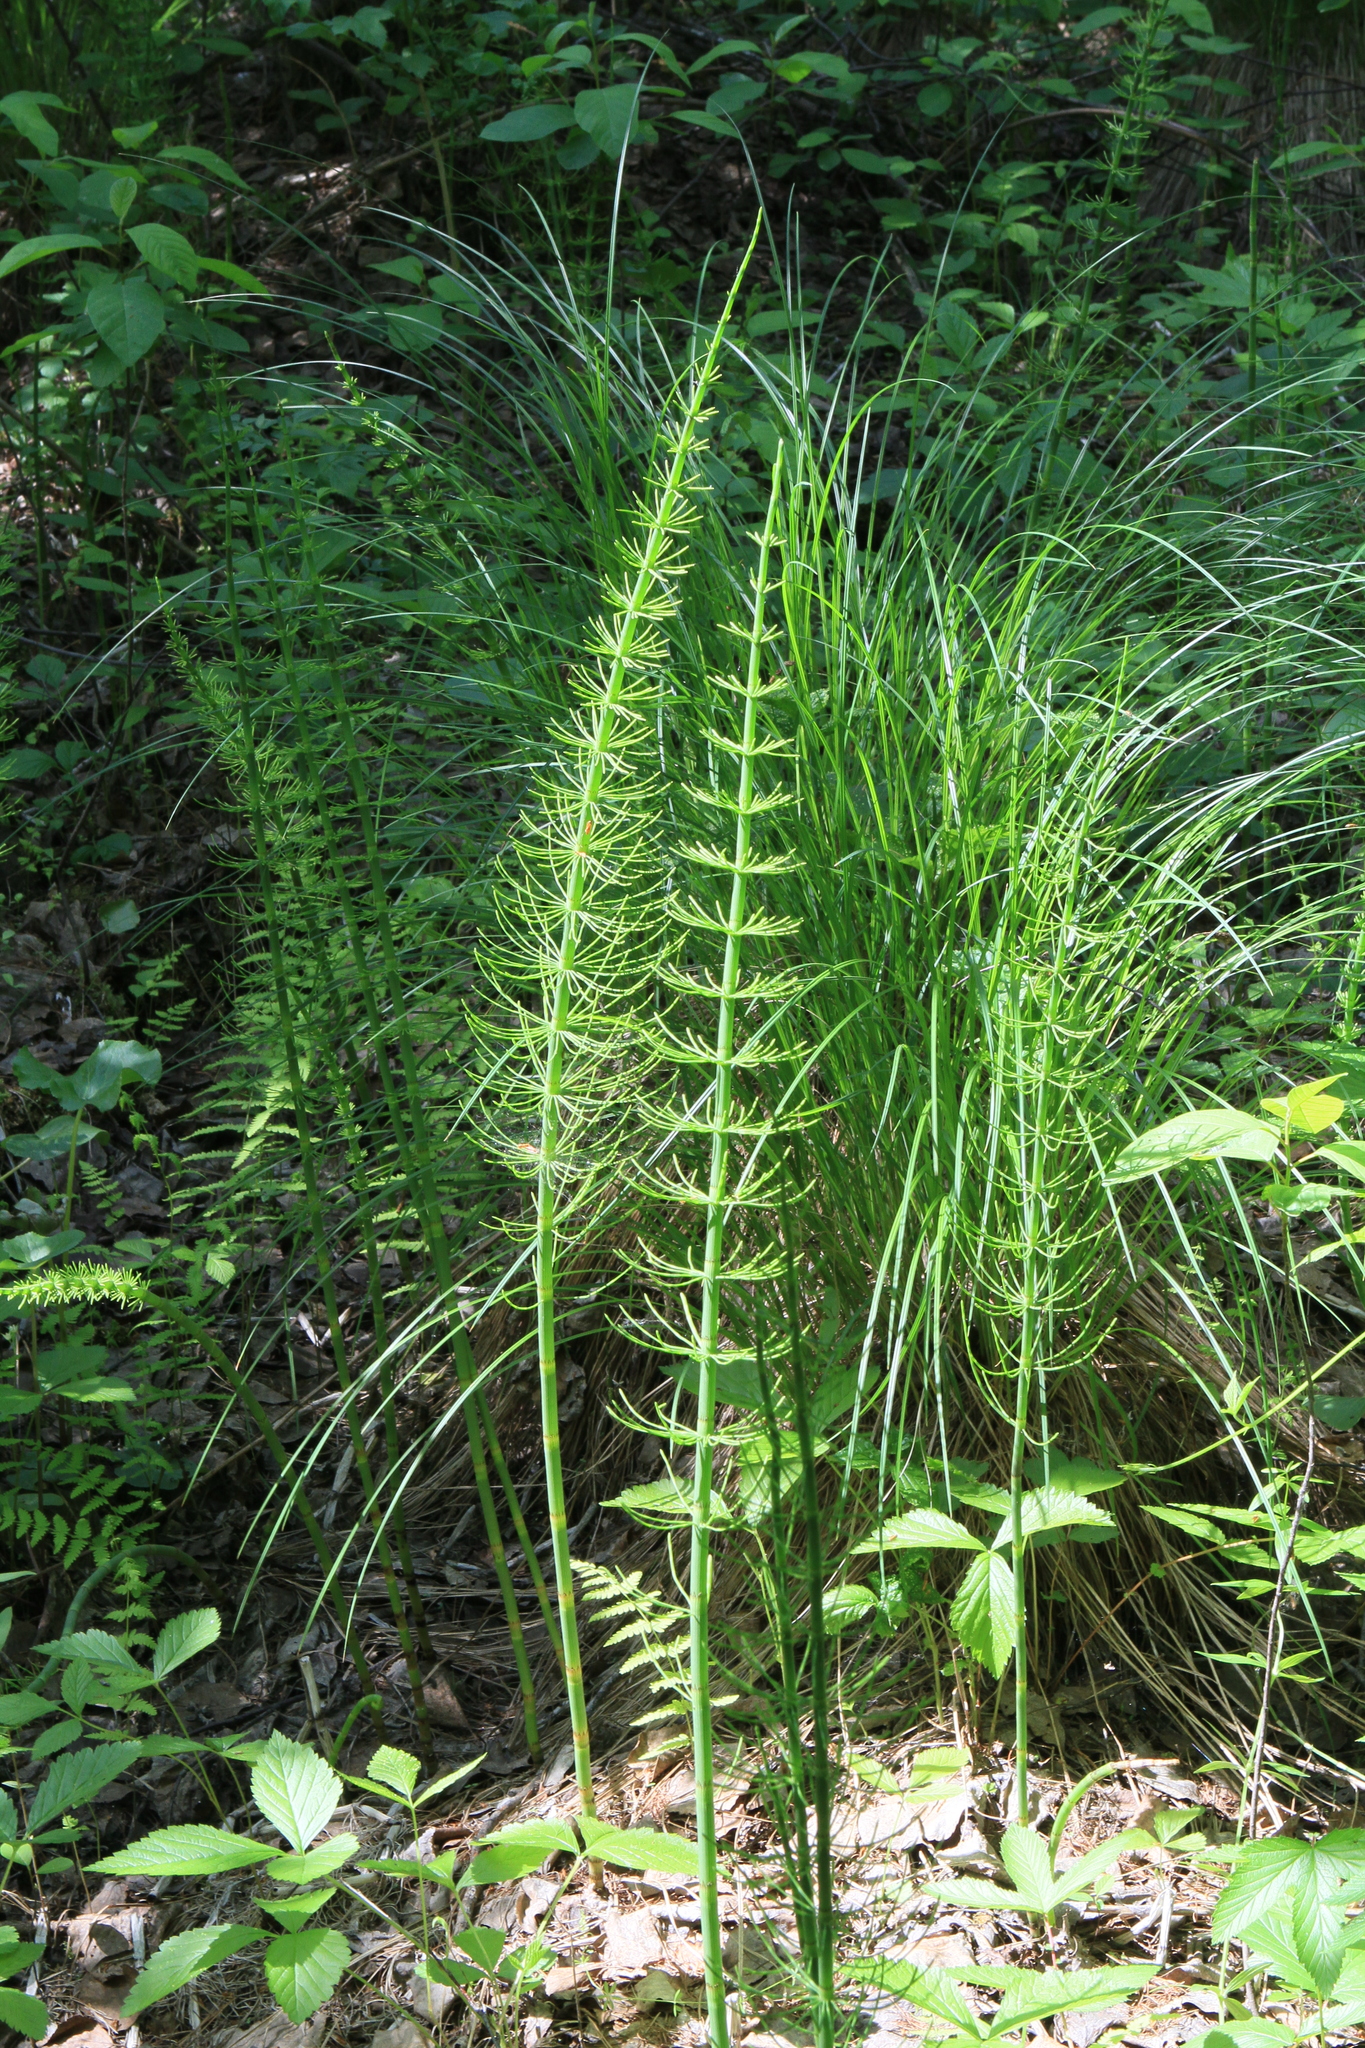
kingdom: Plantae
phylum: Tracheophyta
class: Polypodiopsida
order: Equisetales
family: Equisetaceae
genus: Equisetum
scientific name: Equisetum fluviatile
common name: Water horsetail
